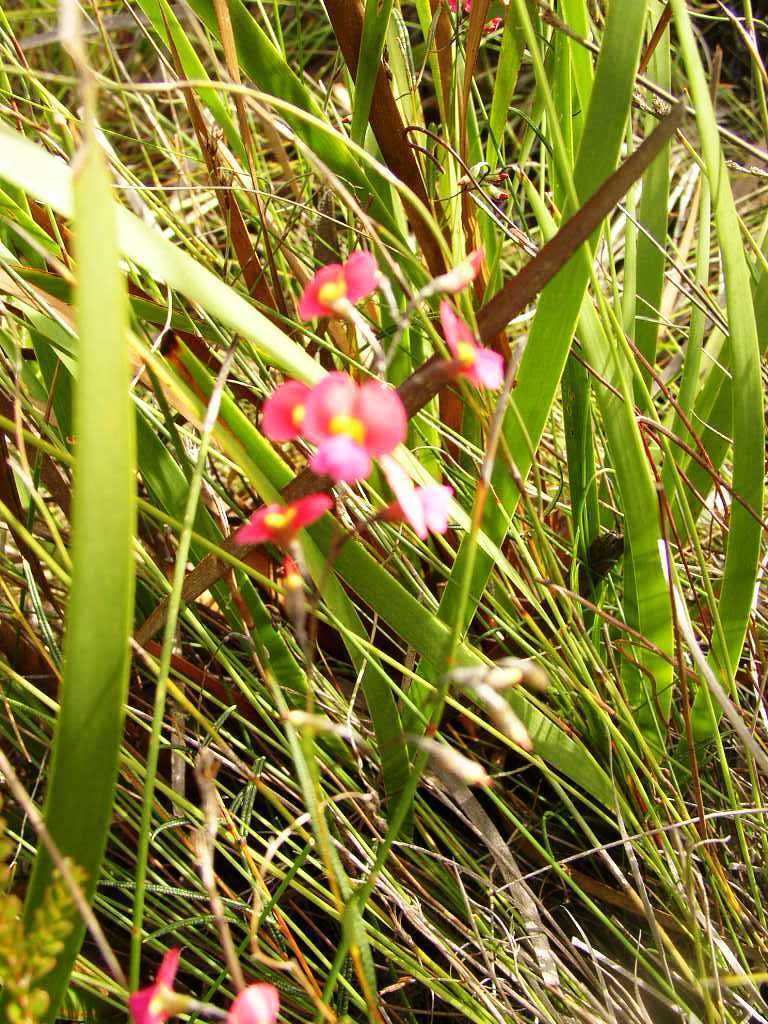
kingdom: Plantae
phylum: Tracheophyta
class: Magnoliopsida
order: Fabales
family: Fabaceae
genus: Chorizema
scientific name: Chorizema glycinifolium
